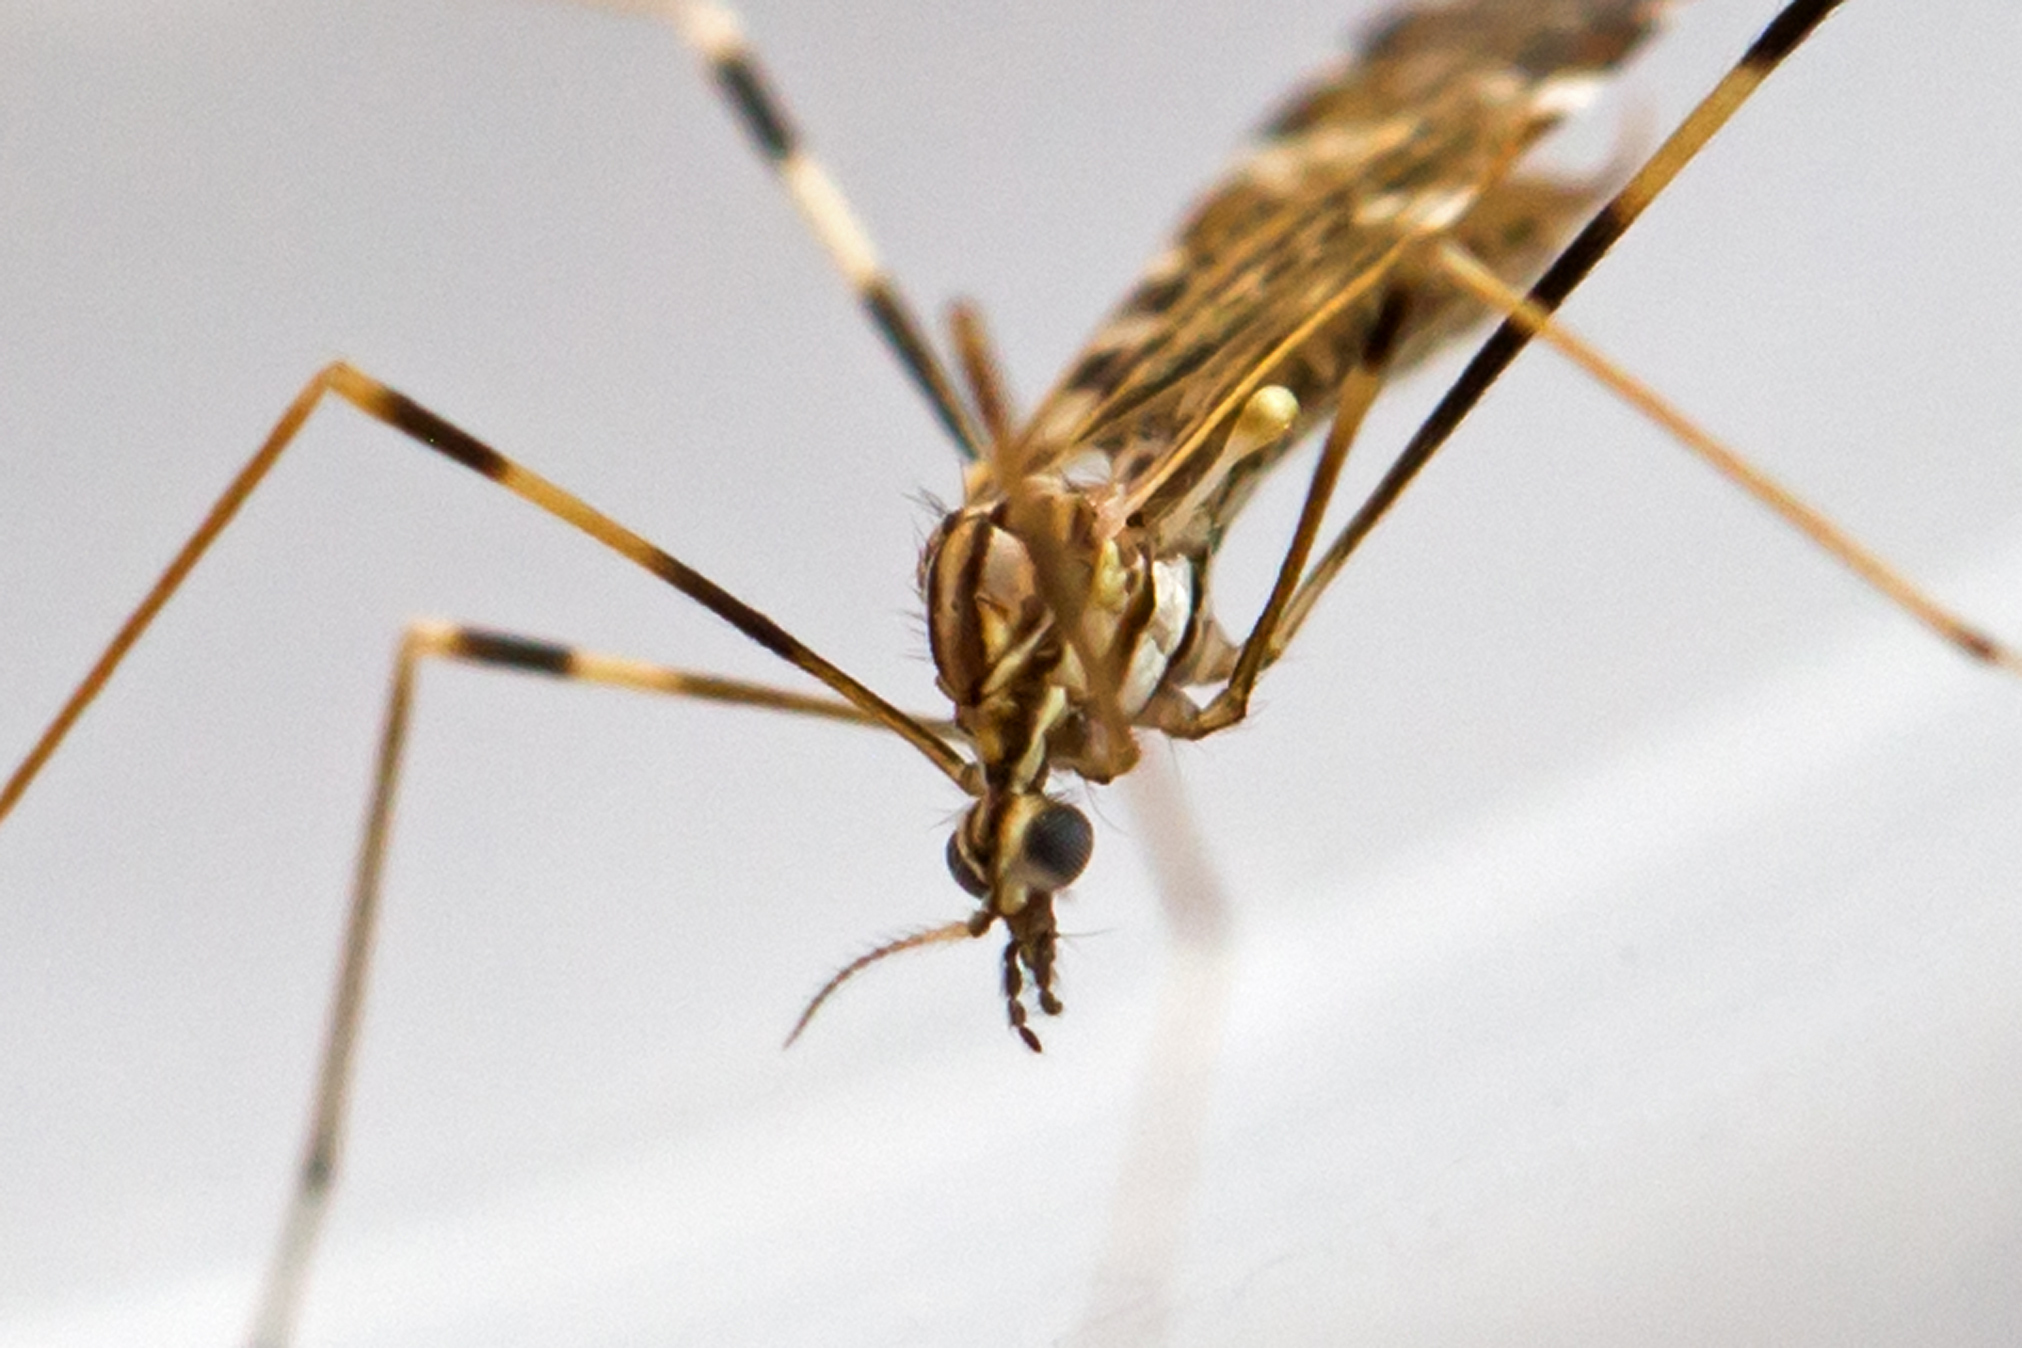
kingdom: Animalia
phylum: Arthropoda
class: Insecta
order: Diptera
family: Limoniidae
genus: Erioptera
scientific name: Erioptera caliptera
